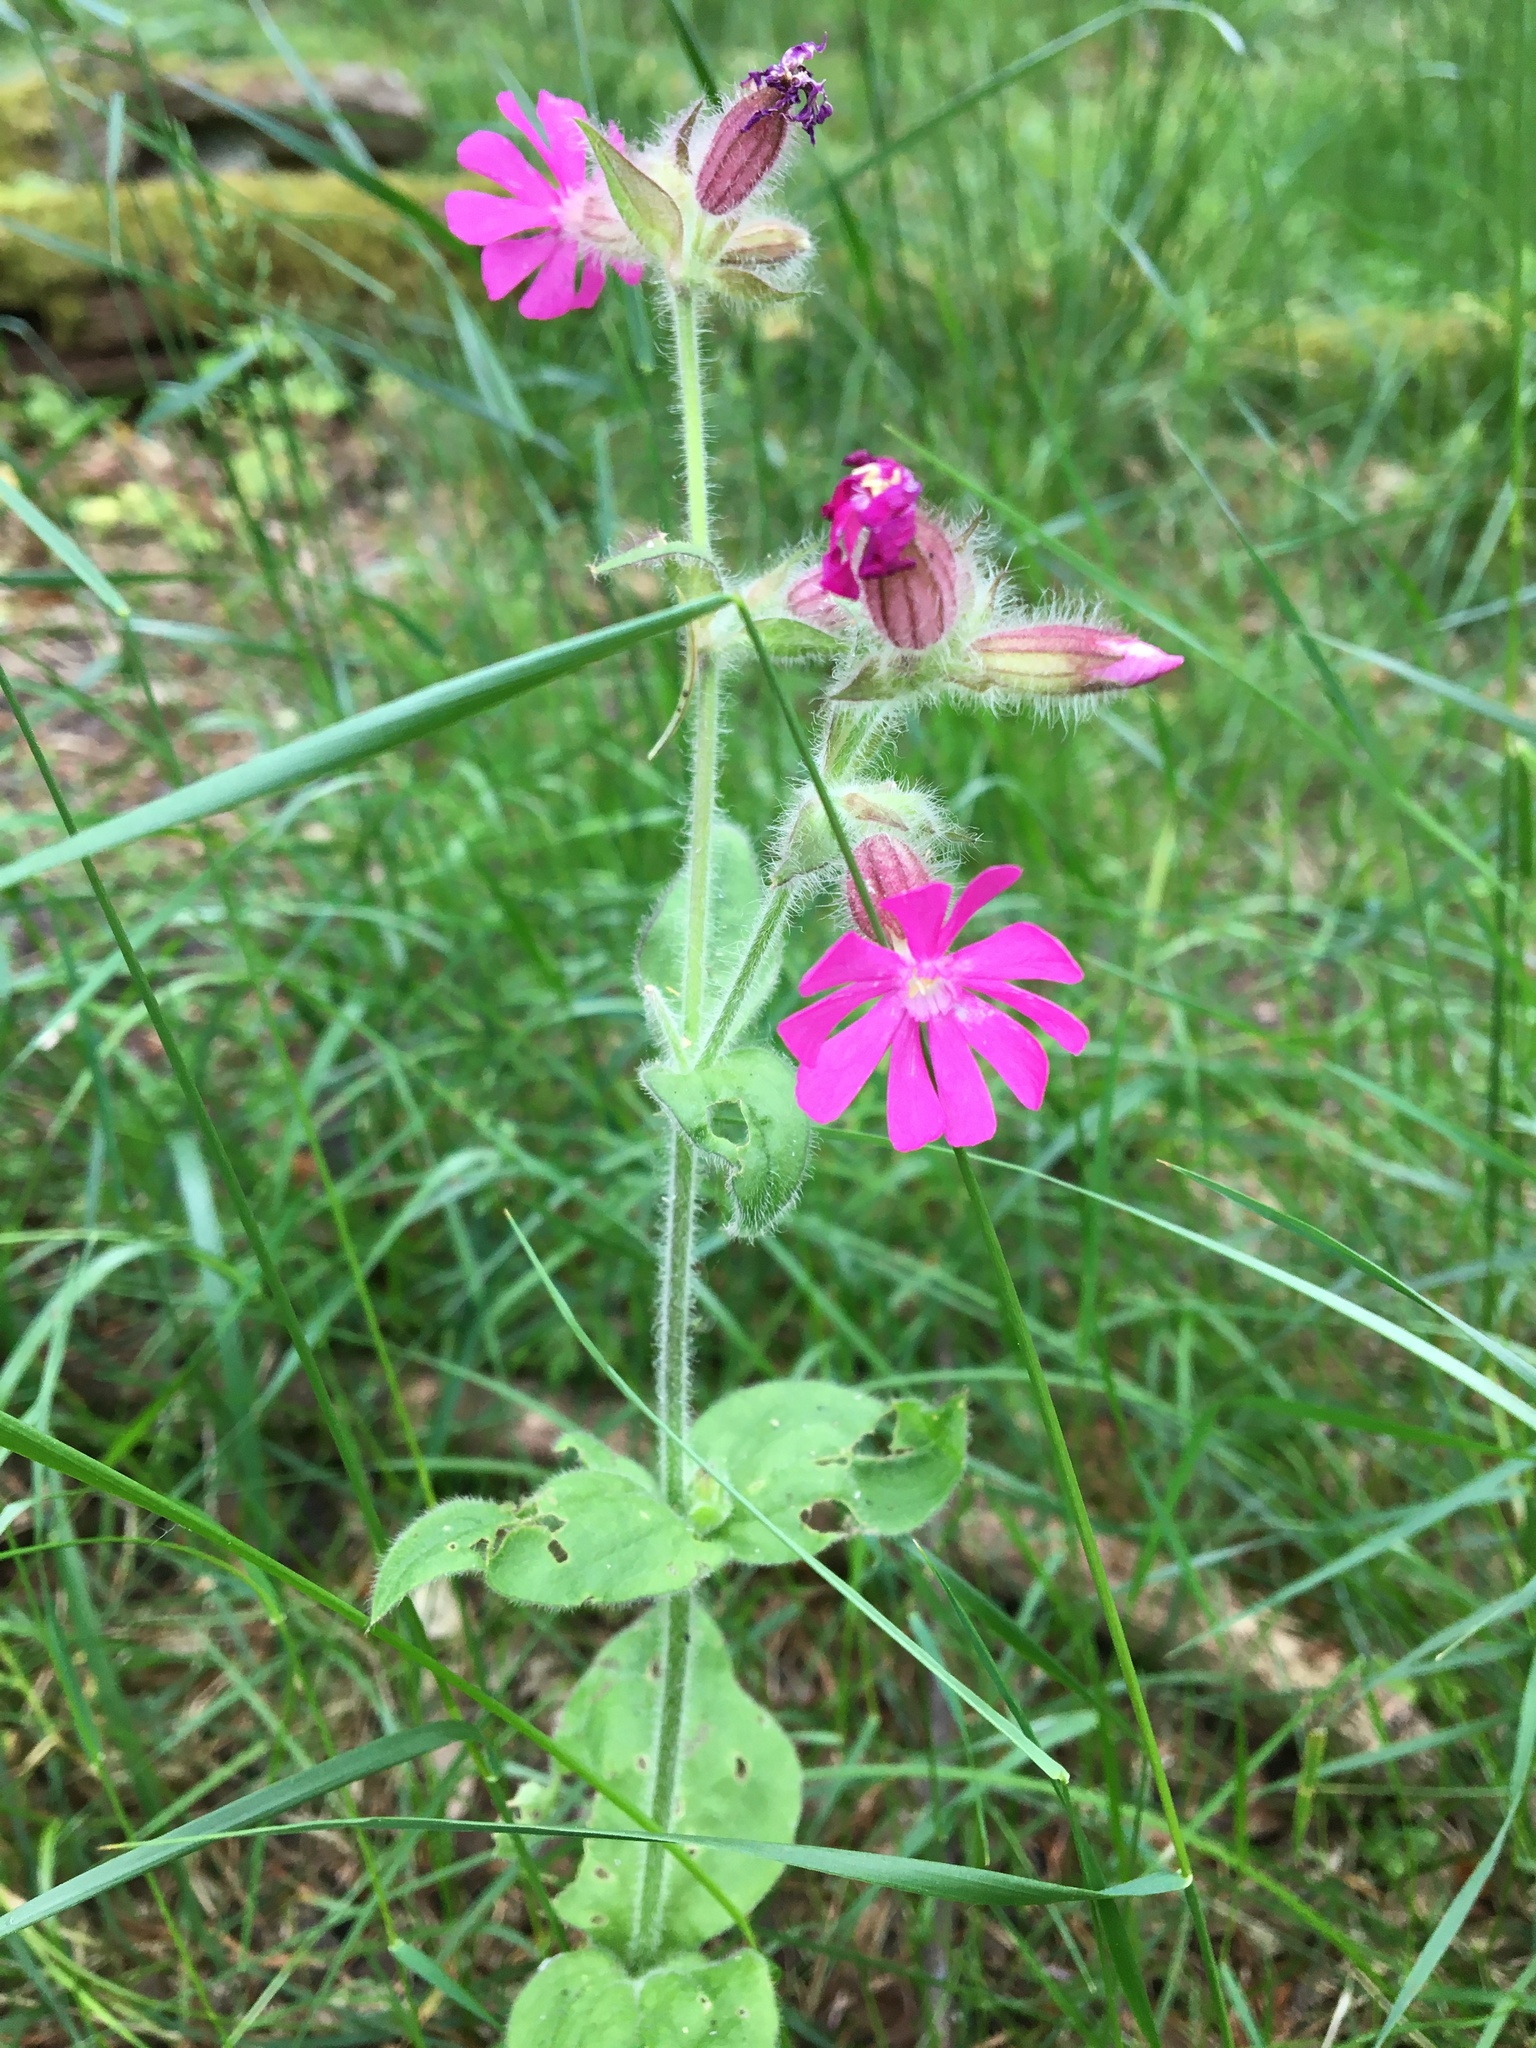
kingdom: Plantae
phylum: Tracheophyta
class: Magnoliopsida
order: Caryophyllales
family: Caryophyllaceae
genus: Silene
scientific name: Silene dioica
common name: Red campion
